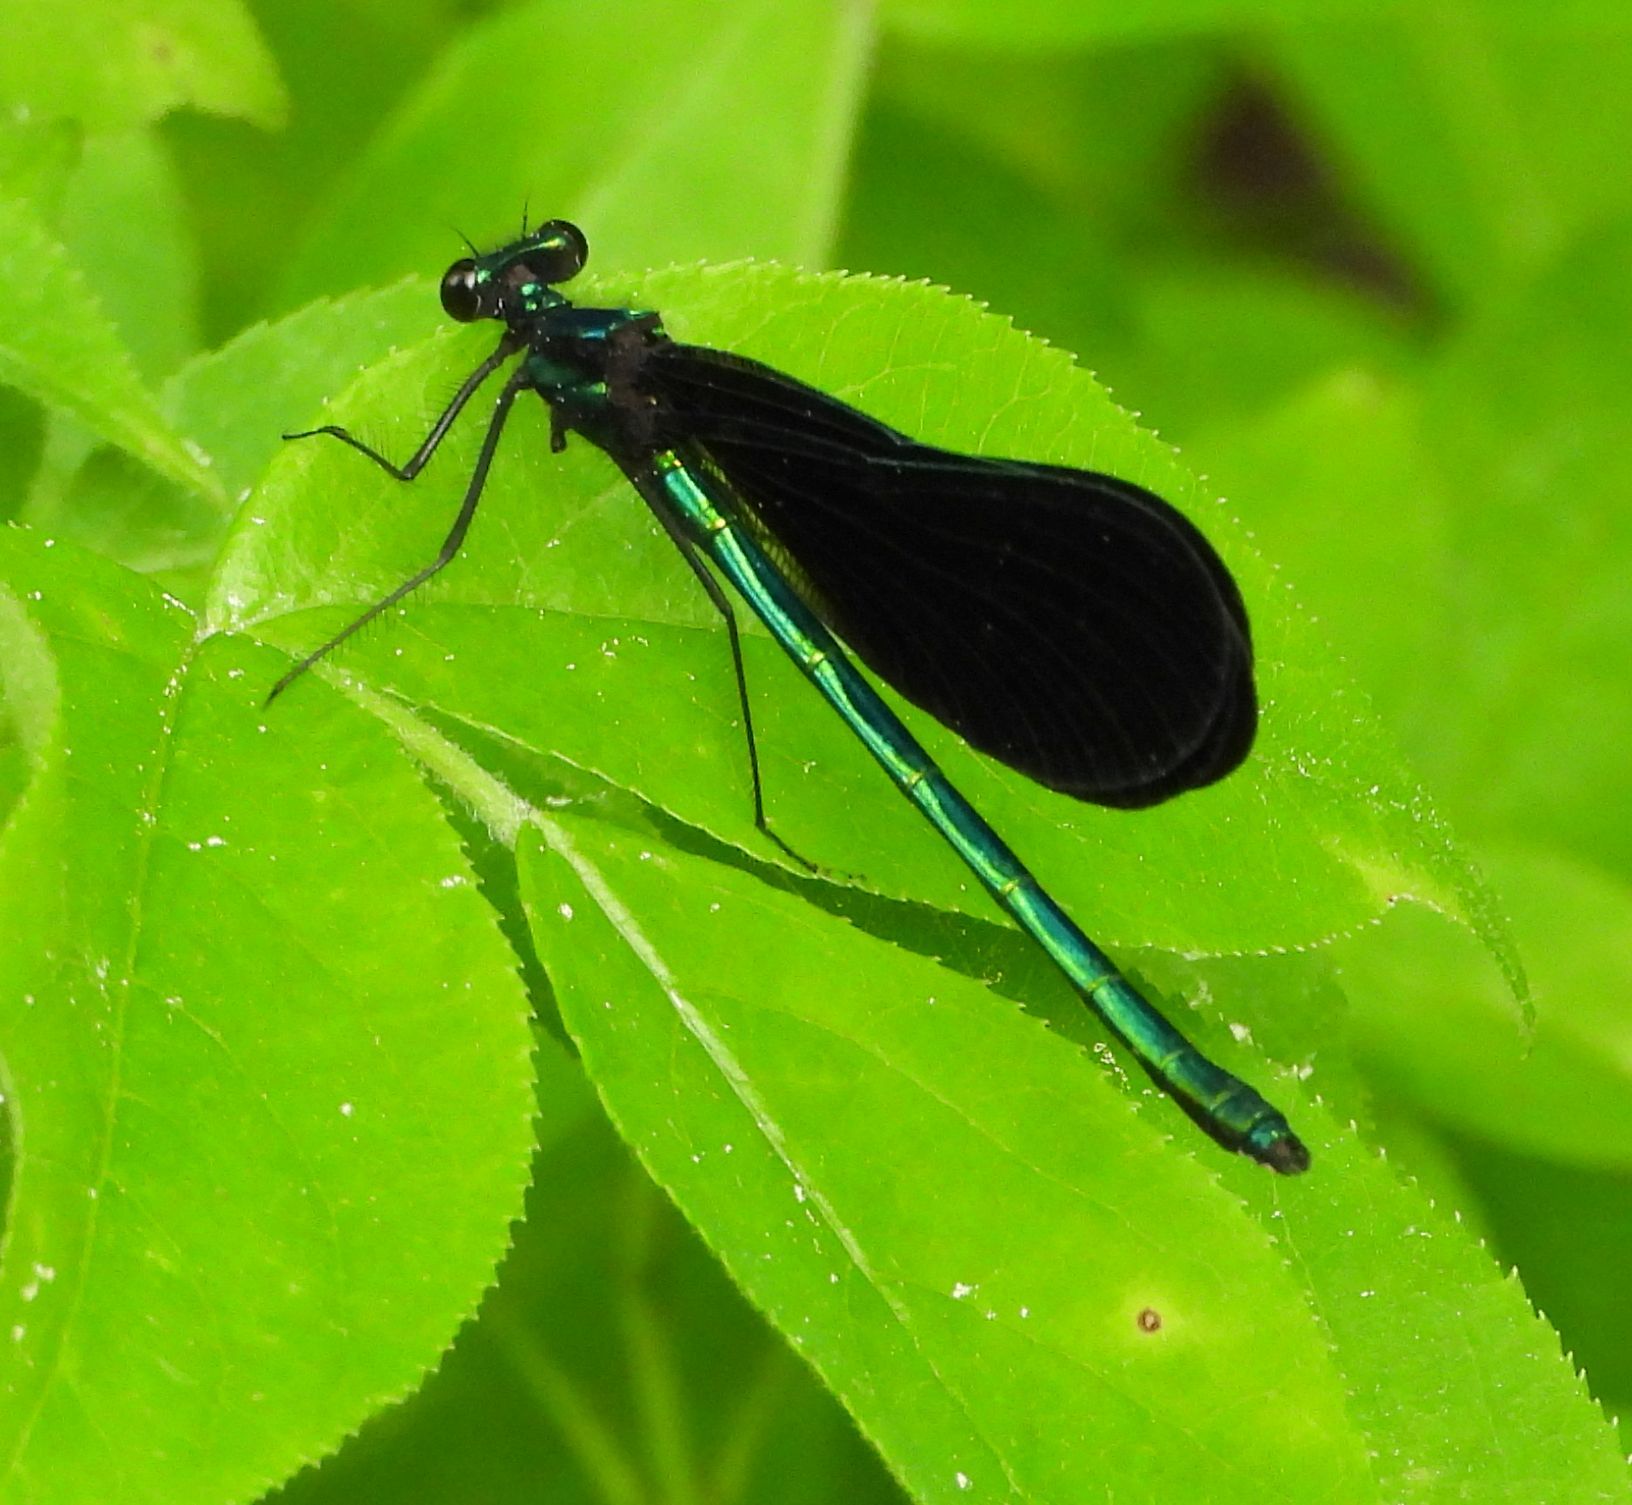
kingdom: Animalia
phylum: Arthropoda
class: Insecta
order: Odonata
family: Calopterygidae
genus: Calopteryx
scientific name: Calopteryx maculata
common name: Ebony jewelwing
